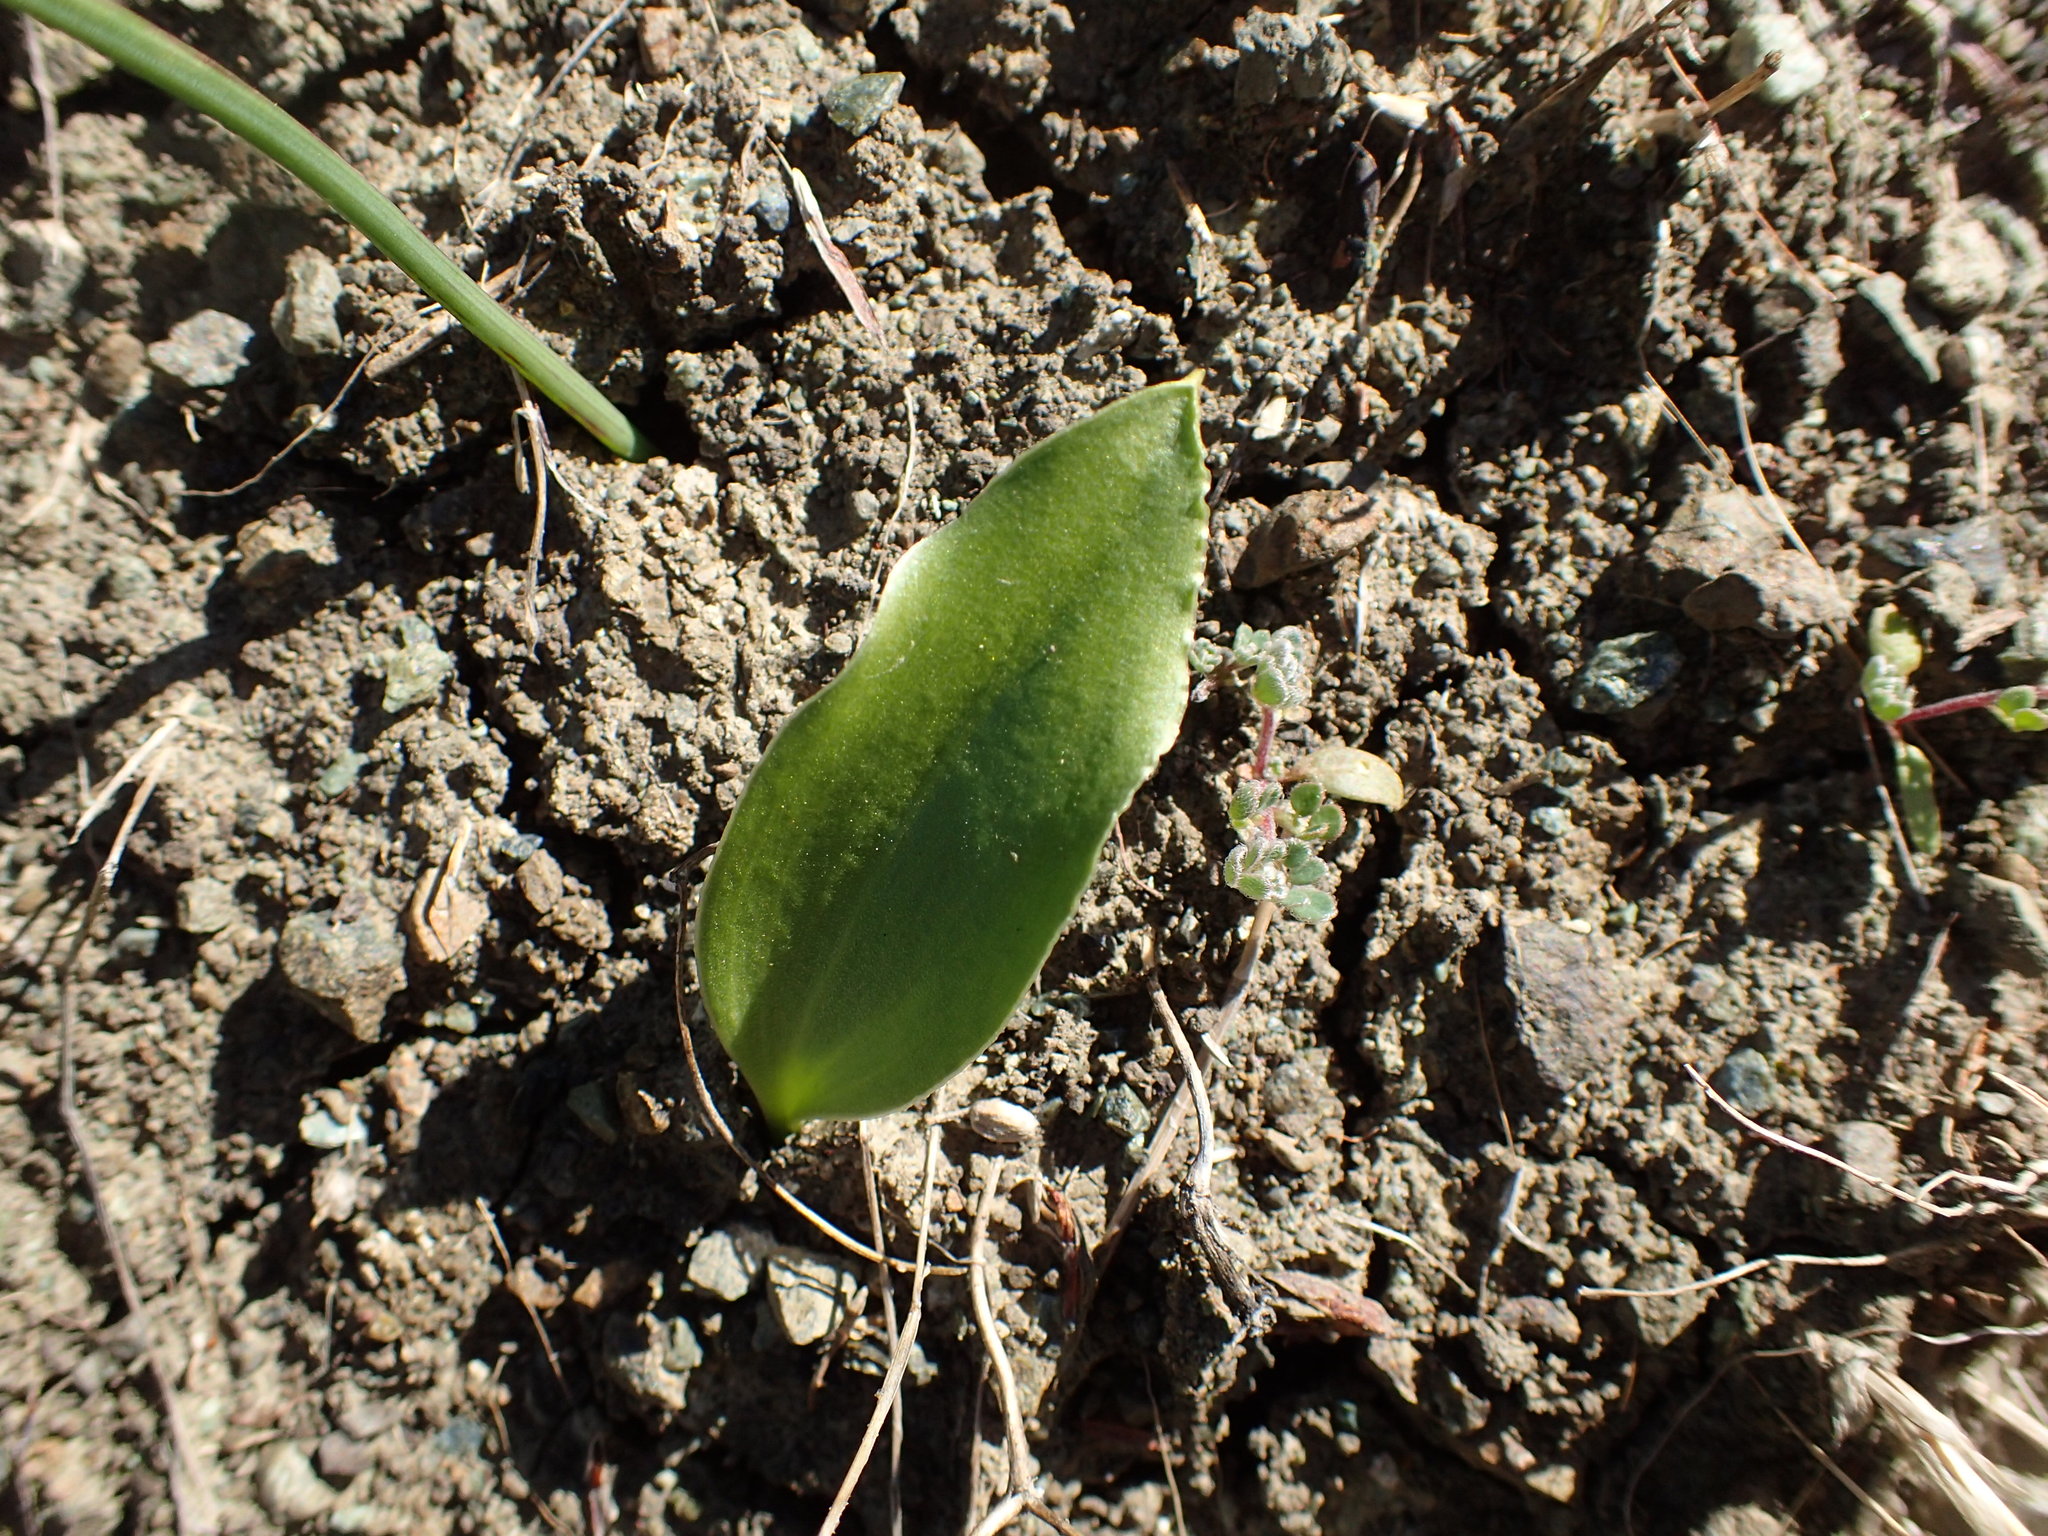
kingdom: Plantae
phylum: Tracheophyta
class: Liliopsida
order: Liliales
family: Liliaceae
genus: Fritillaria
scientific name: Fritillaria biflora
